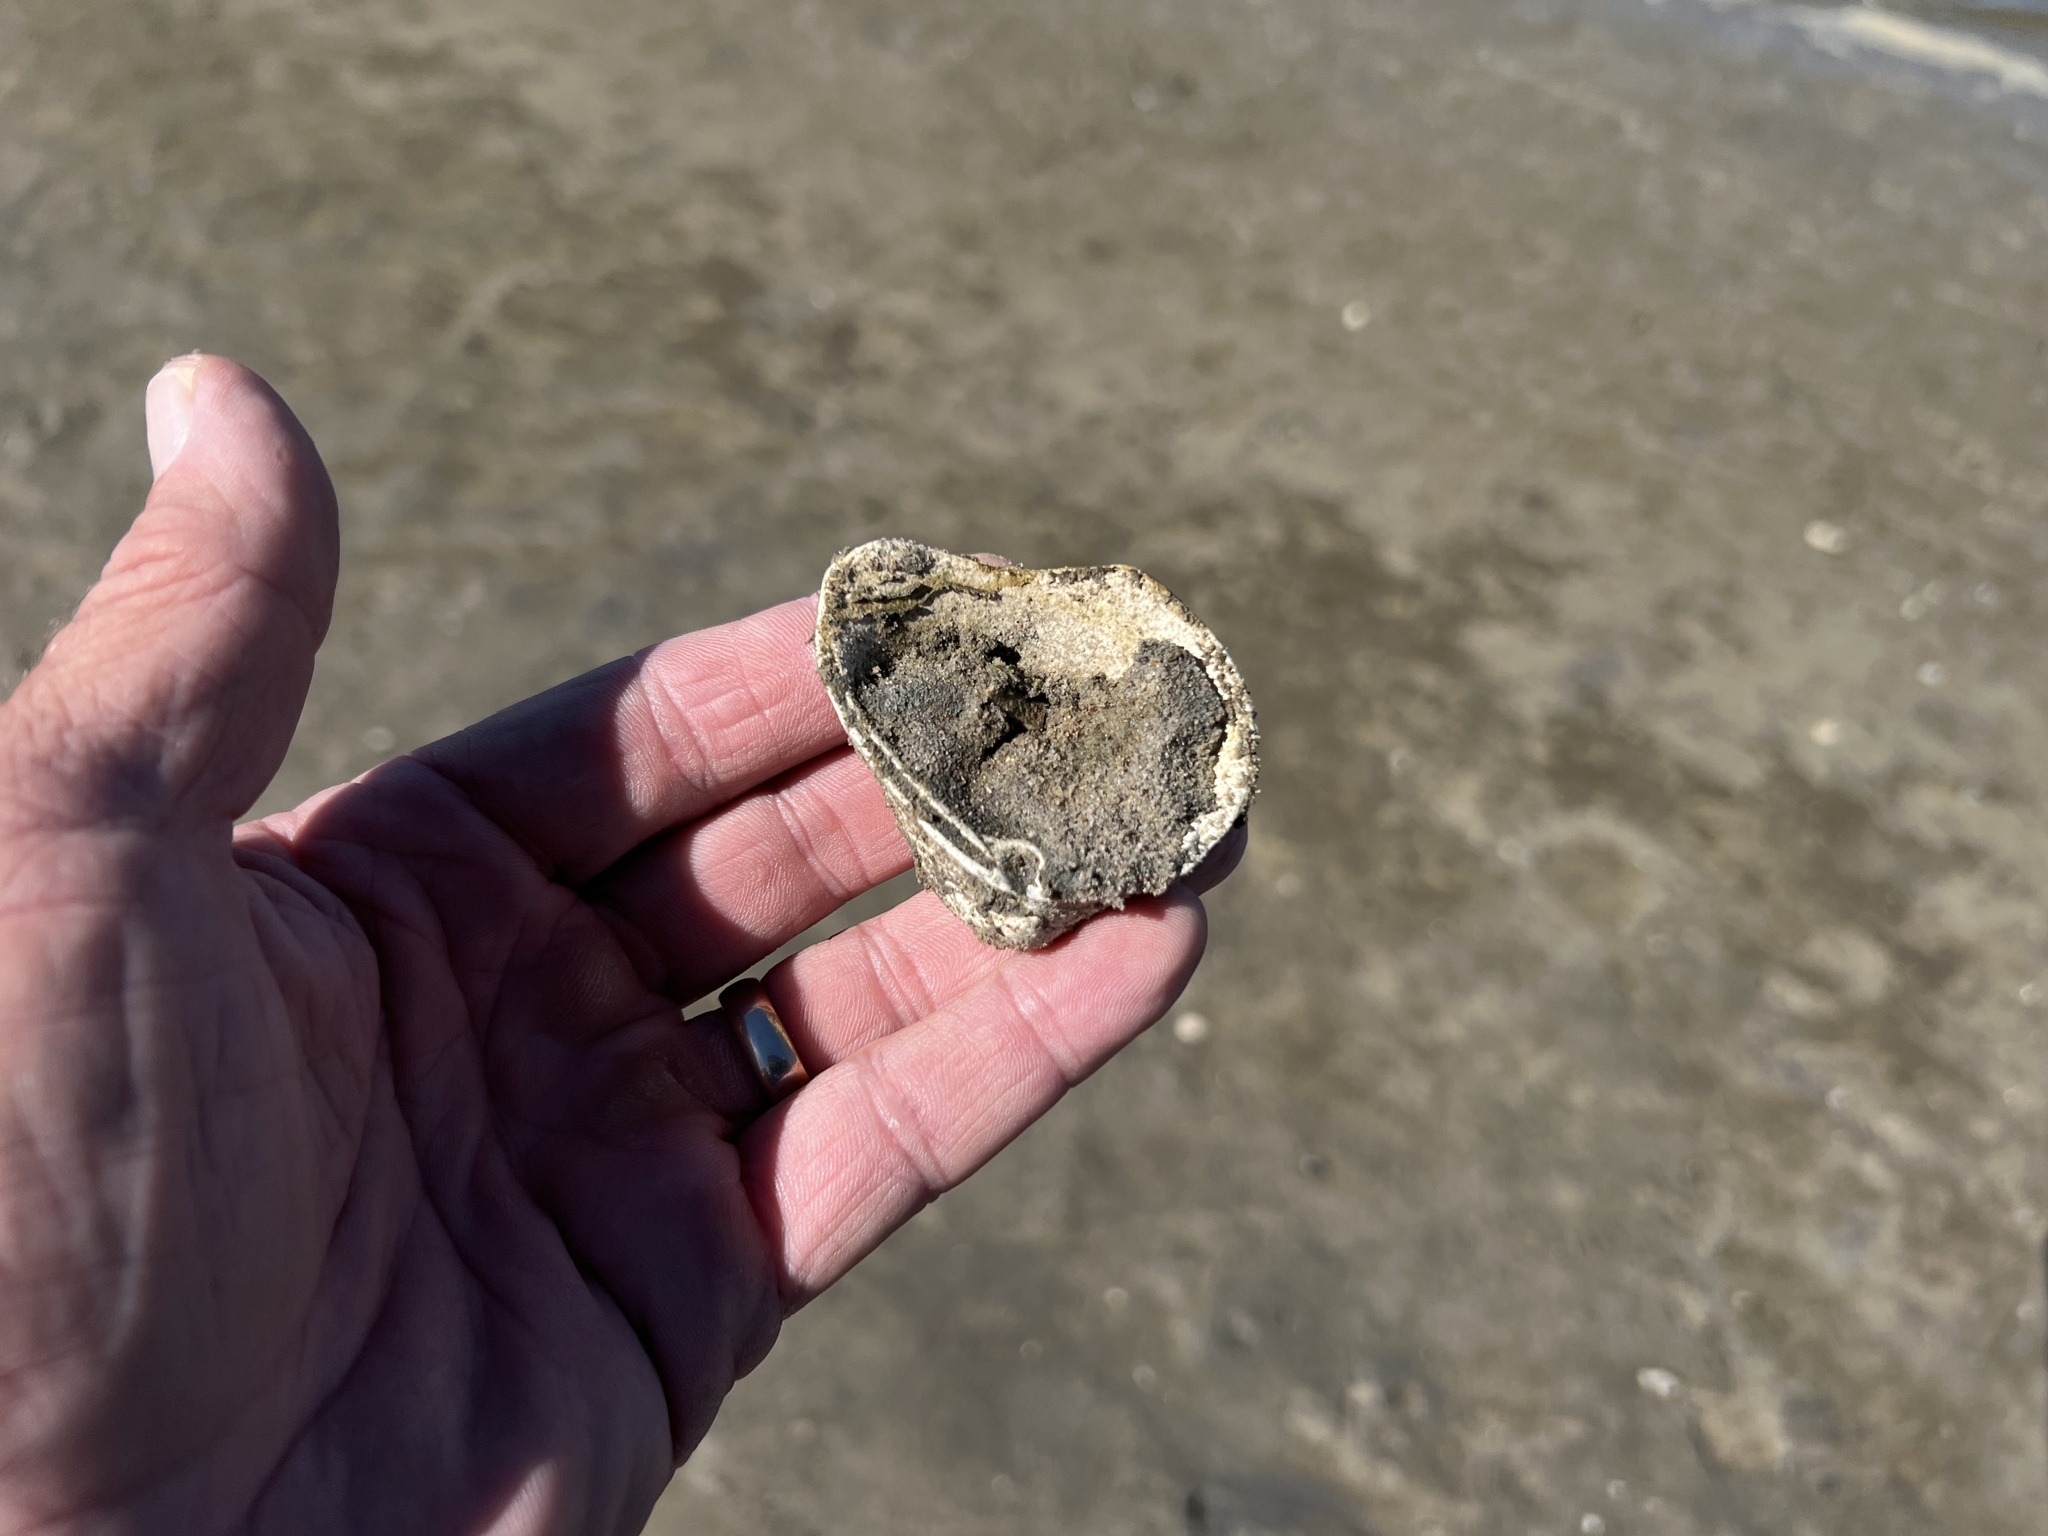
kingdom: Animalia
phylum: Mollusca
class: Bivalvia
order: Venerida
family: Mactridae
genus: Rangia
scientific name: Rangia cuneata
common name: Atlantic rangia
